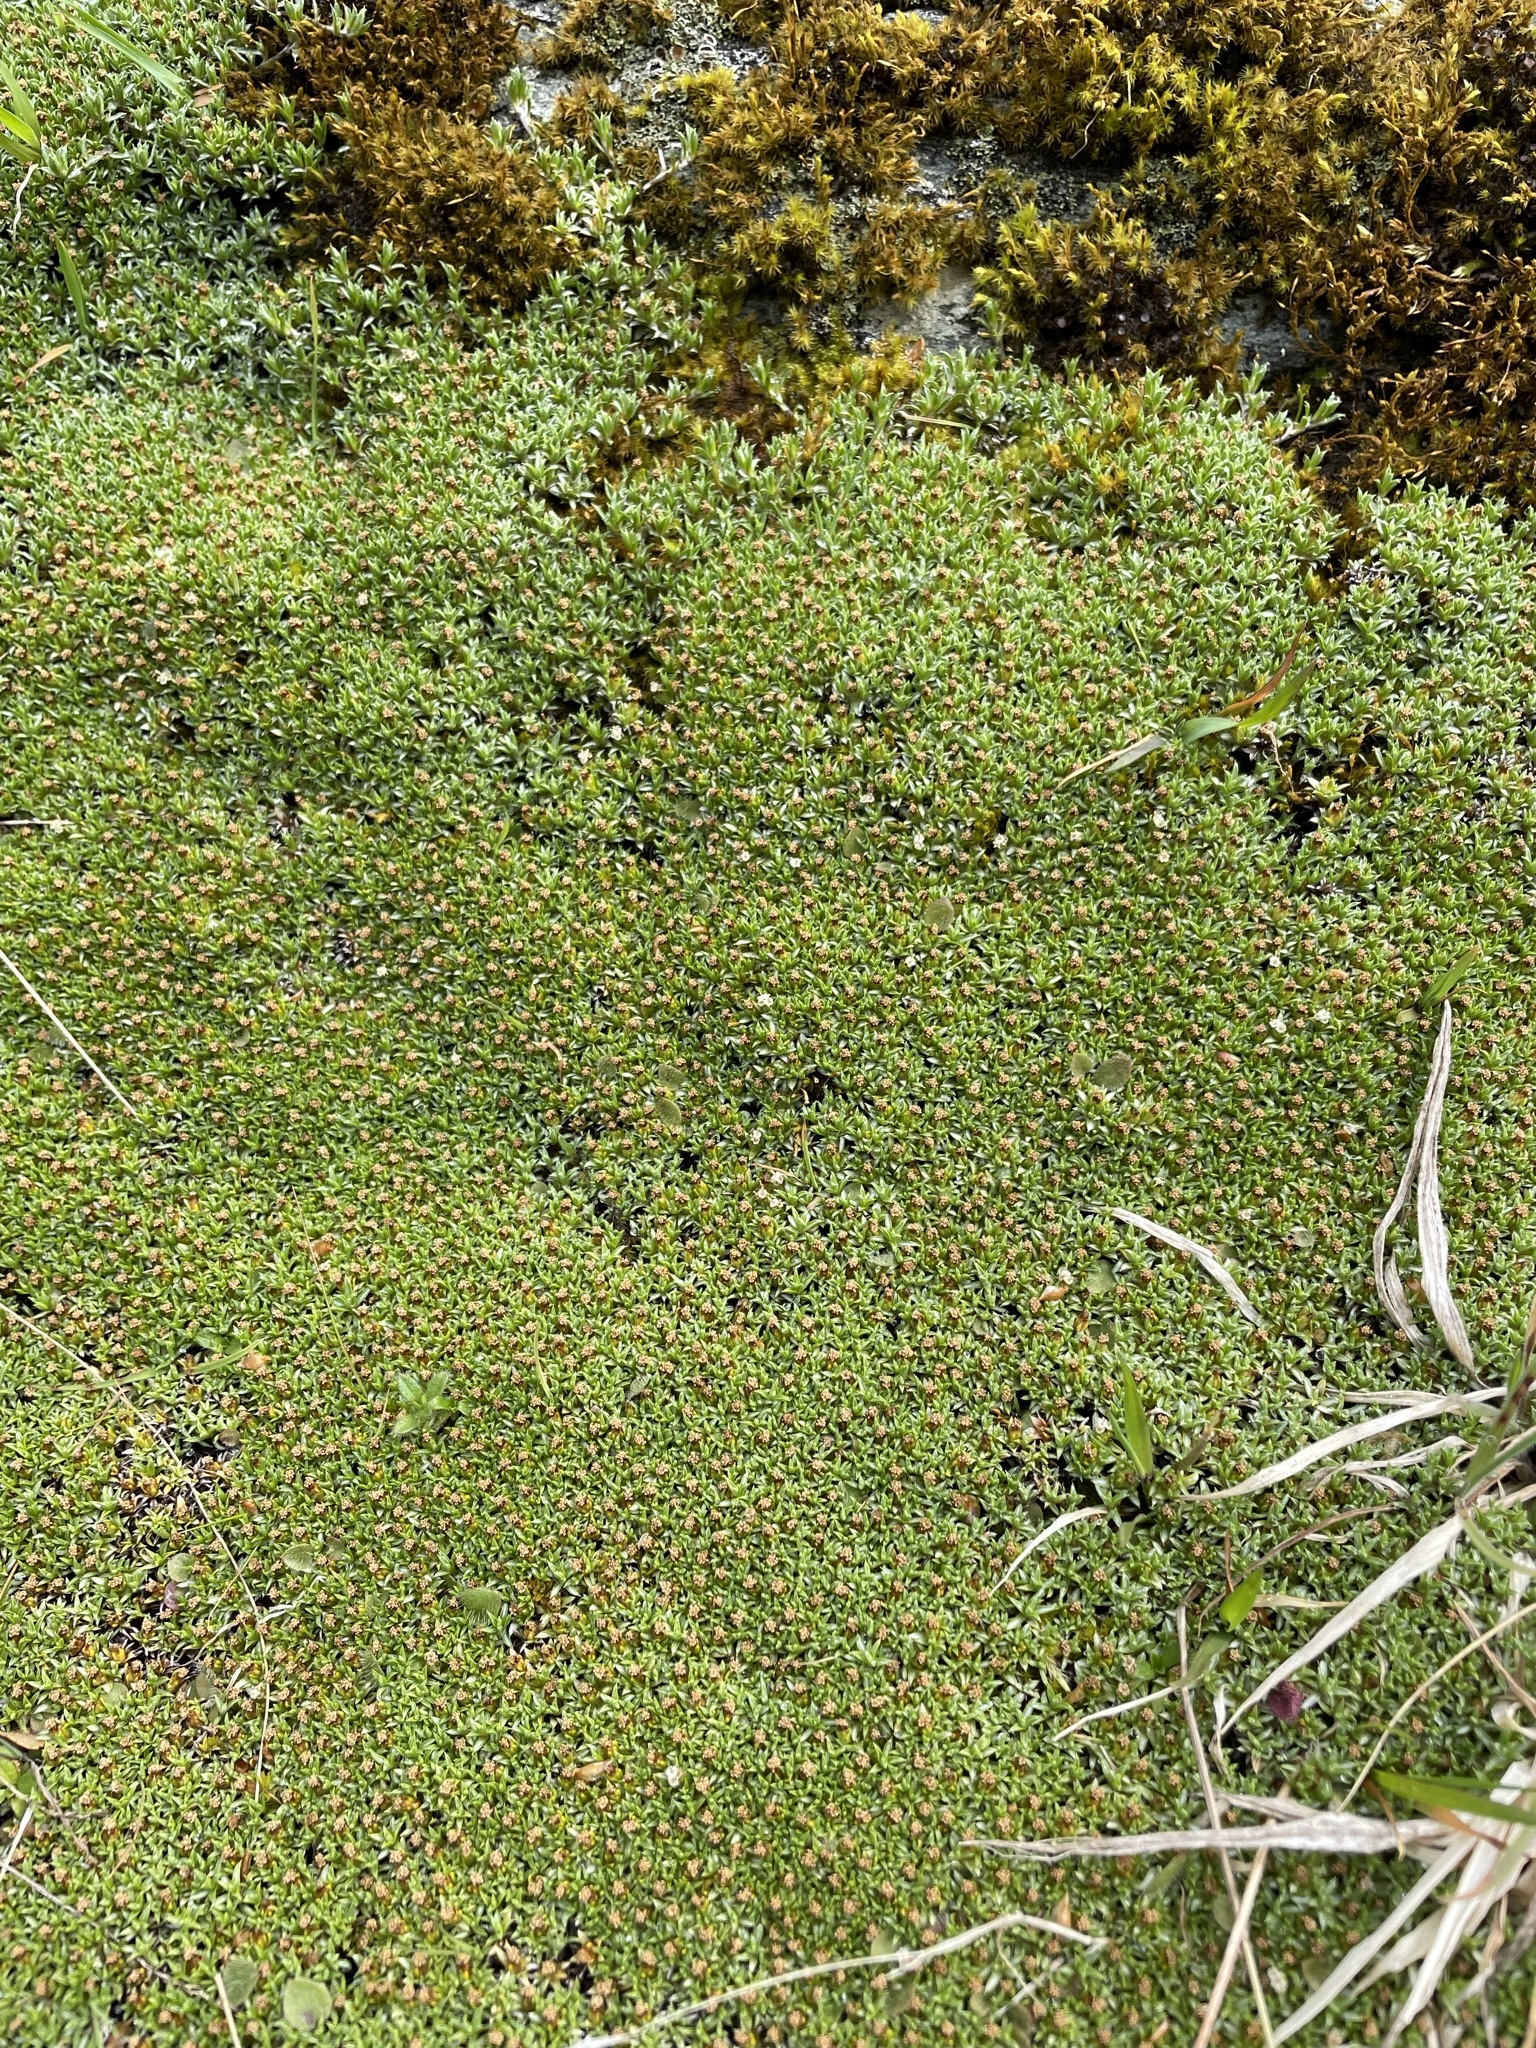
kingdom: Plantae
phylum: Tracheophyta
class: Magnoliopsida
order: Asterales
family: Asteraceae
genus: Raoulia
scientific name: Raoulia tenuicaulis
